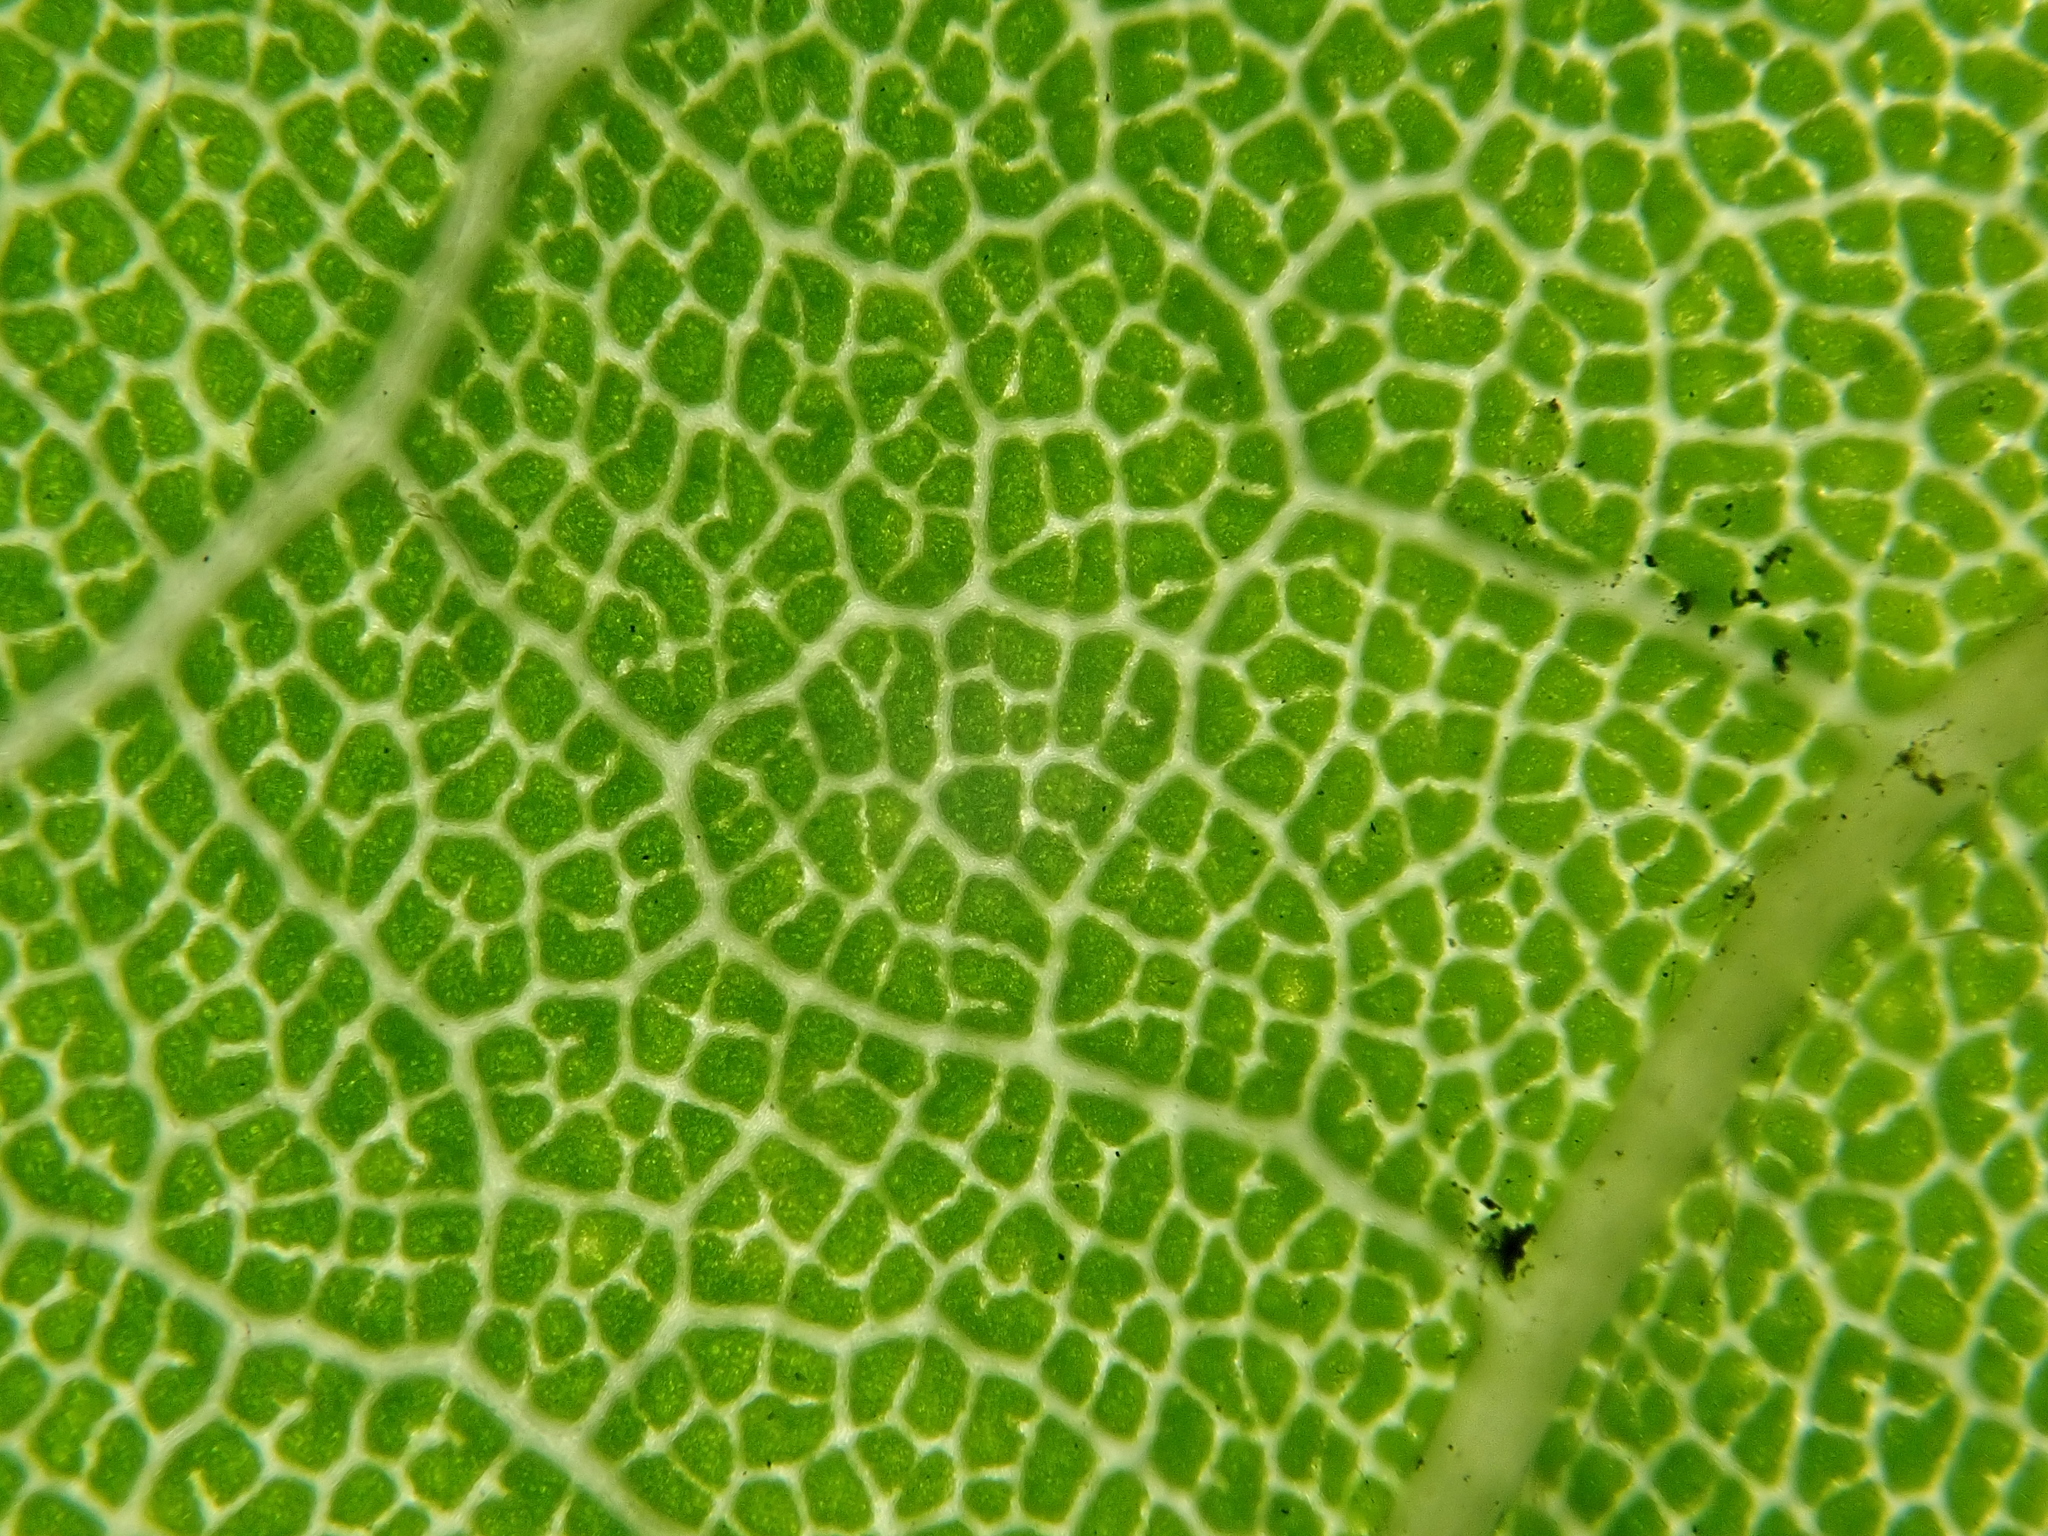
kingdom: Plantae
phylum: Tracheophyta
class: Magnoliopsida
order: Sapindales
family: Sapindaceae
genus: Acer
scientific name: Acer pseudoplatanus
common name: Sycamore
